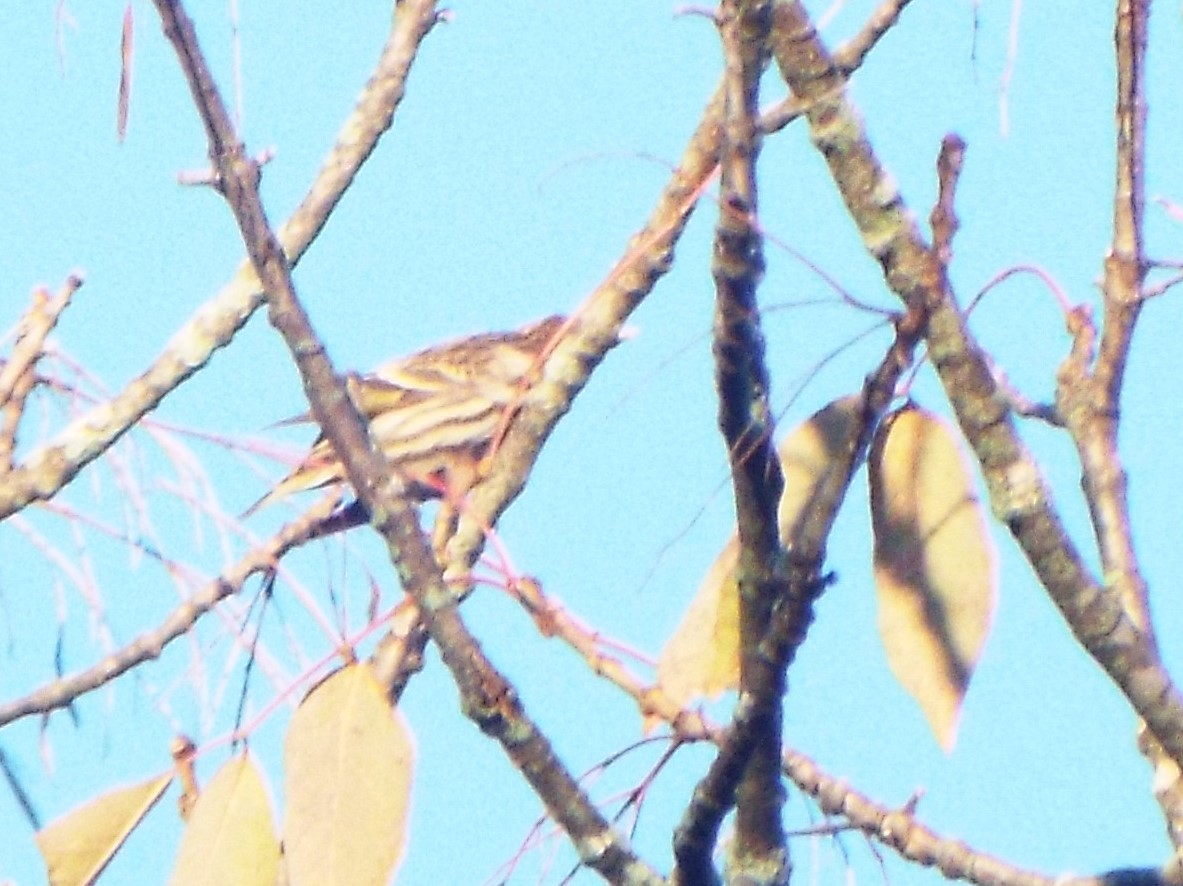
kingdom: Animalia
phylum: Chordata
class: Aves
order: Passeriformes
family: Fringillidae
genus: Spinus
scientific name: Spinus pinus
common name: Pine siskin
